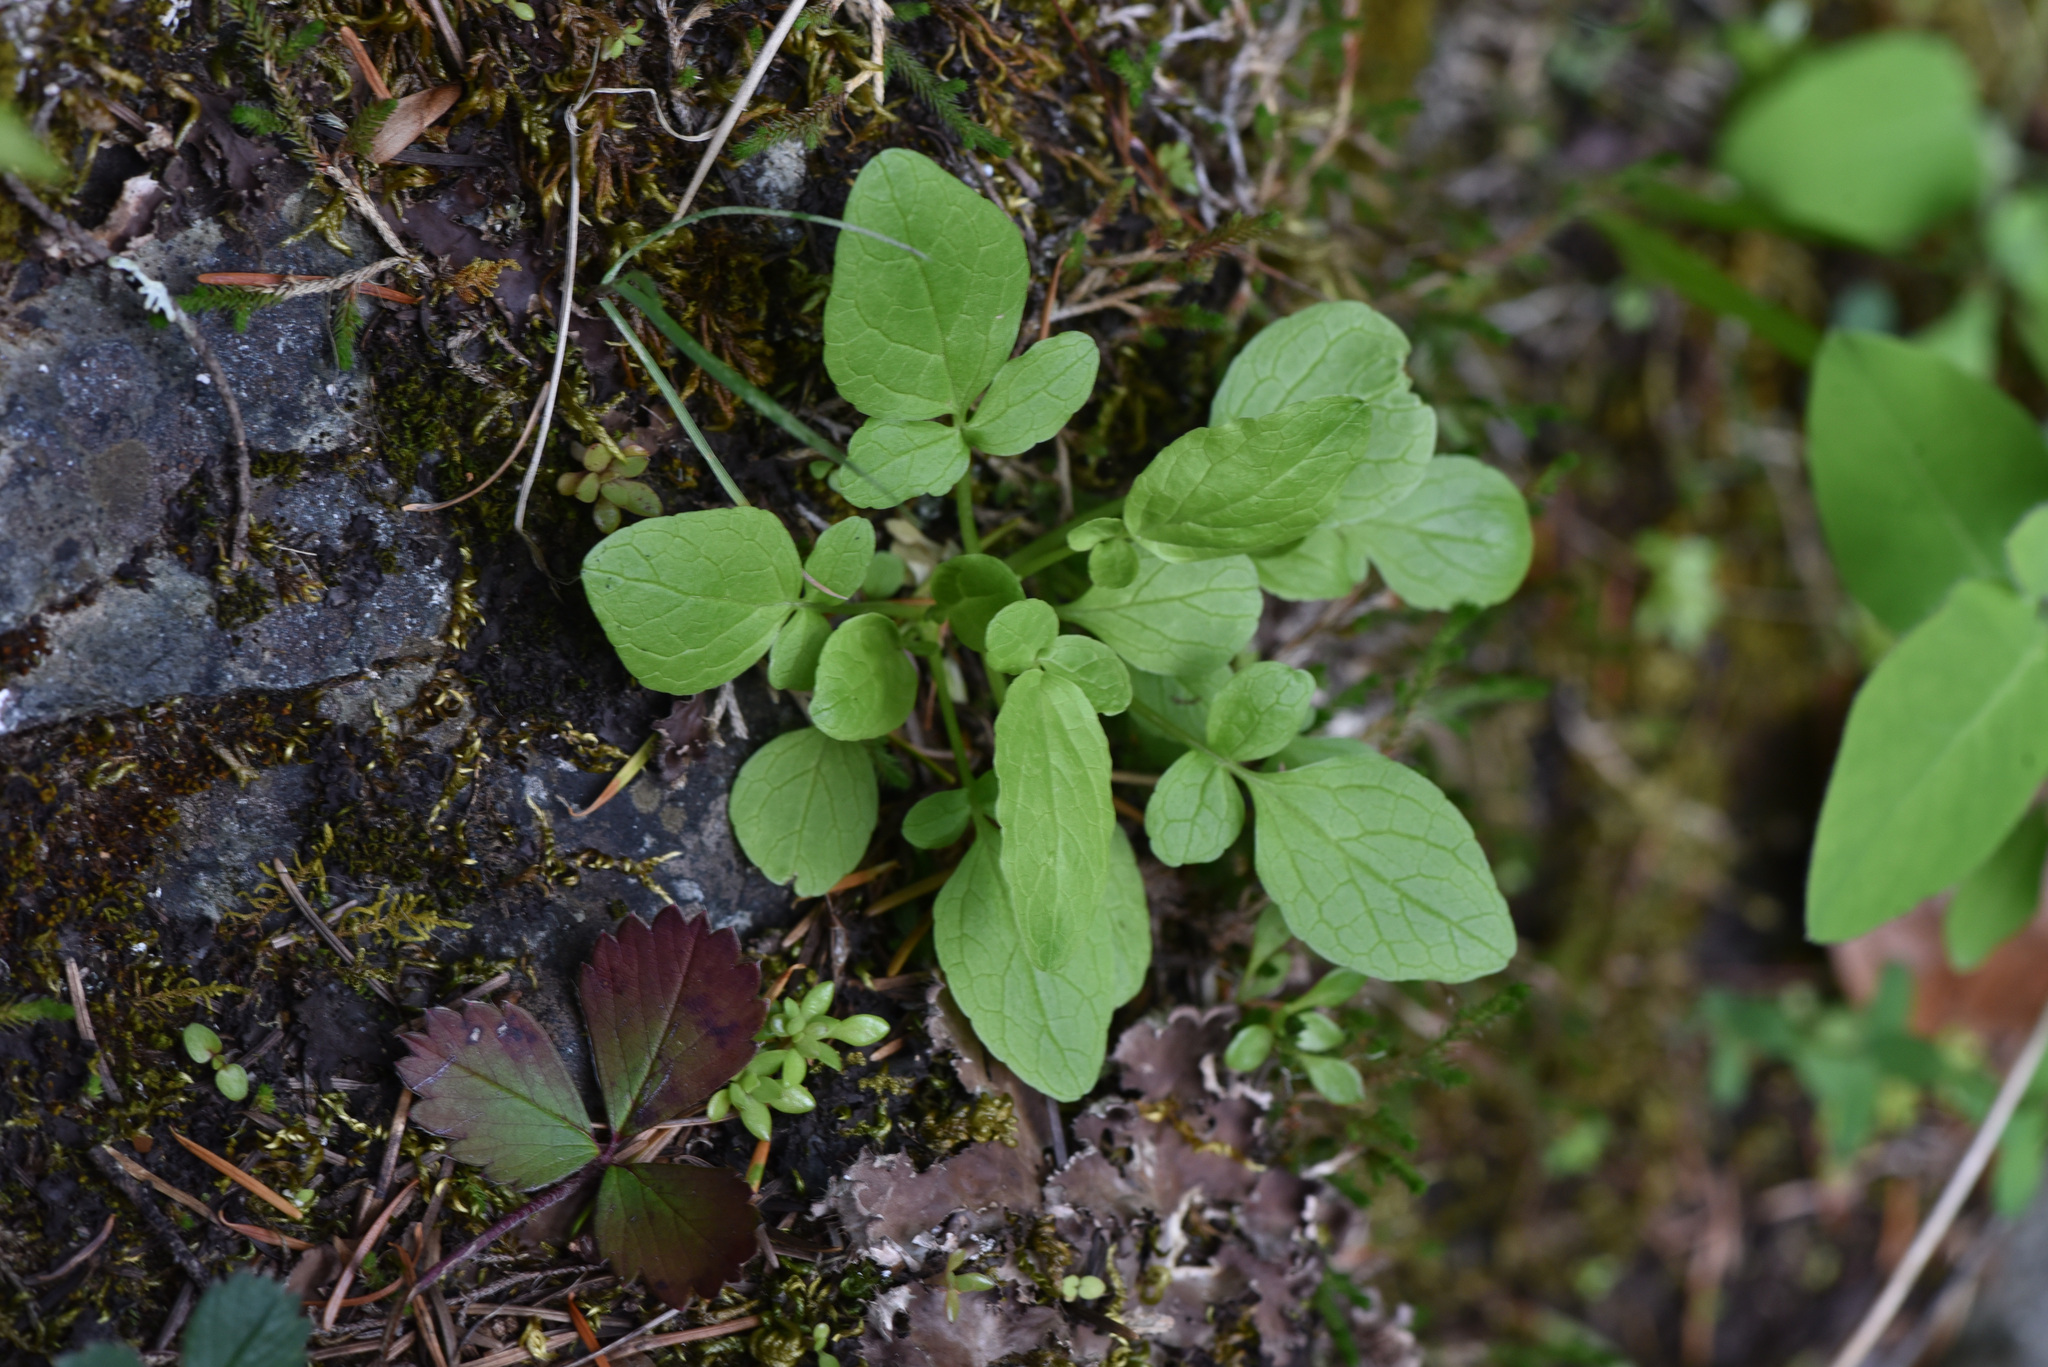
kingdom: Plantae
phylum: Tracheophyta
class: Magnoliopsida
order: Dipsacales
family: Caprifoliaceae
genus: Valeriana
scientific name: Valeriana sitchensis
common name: Pacific valerian
